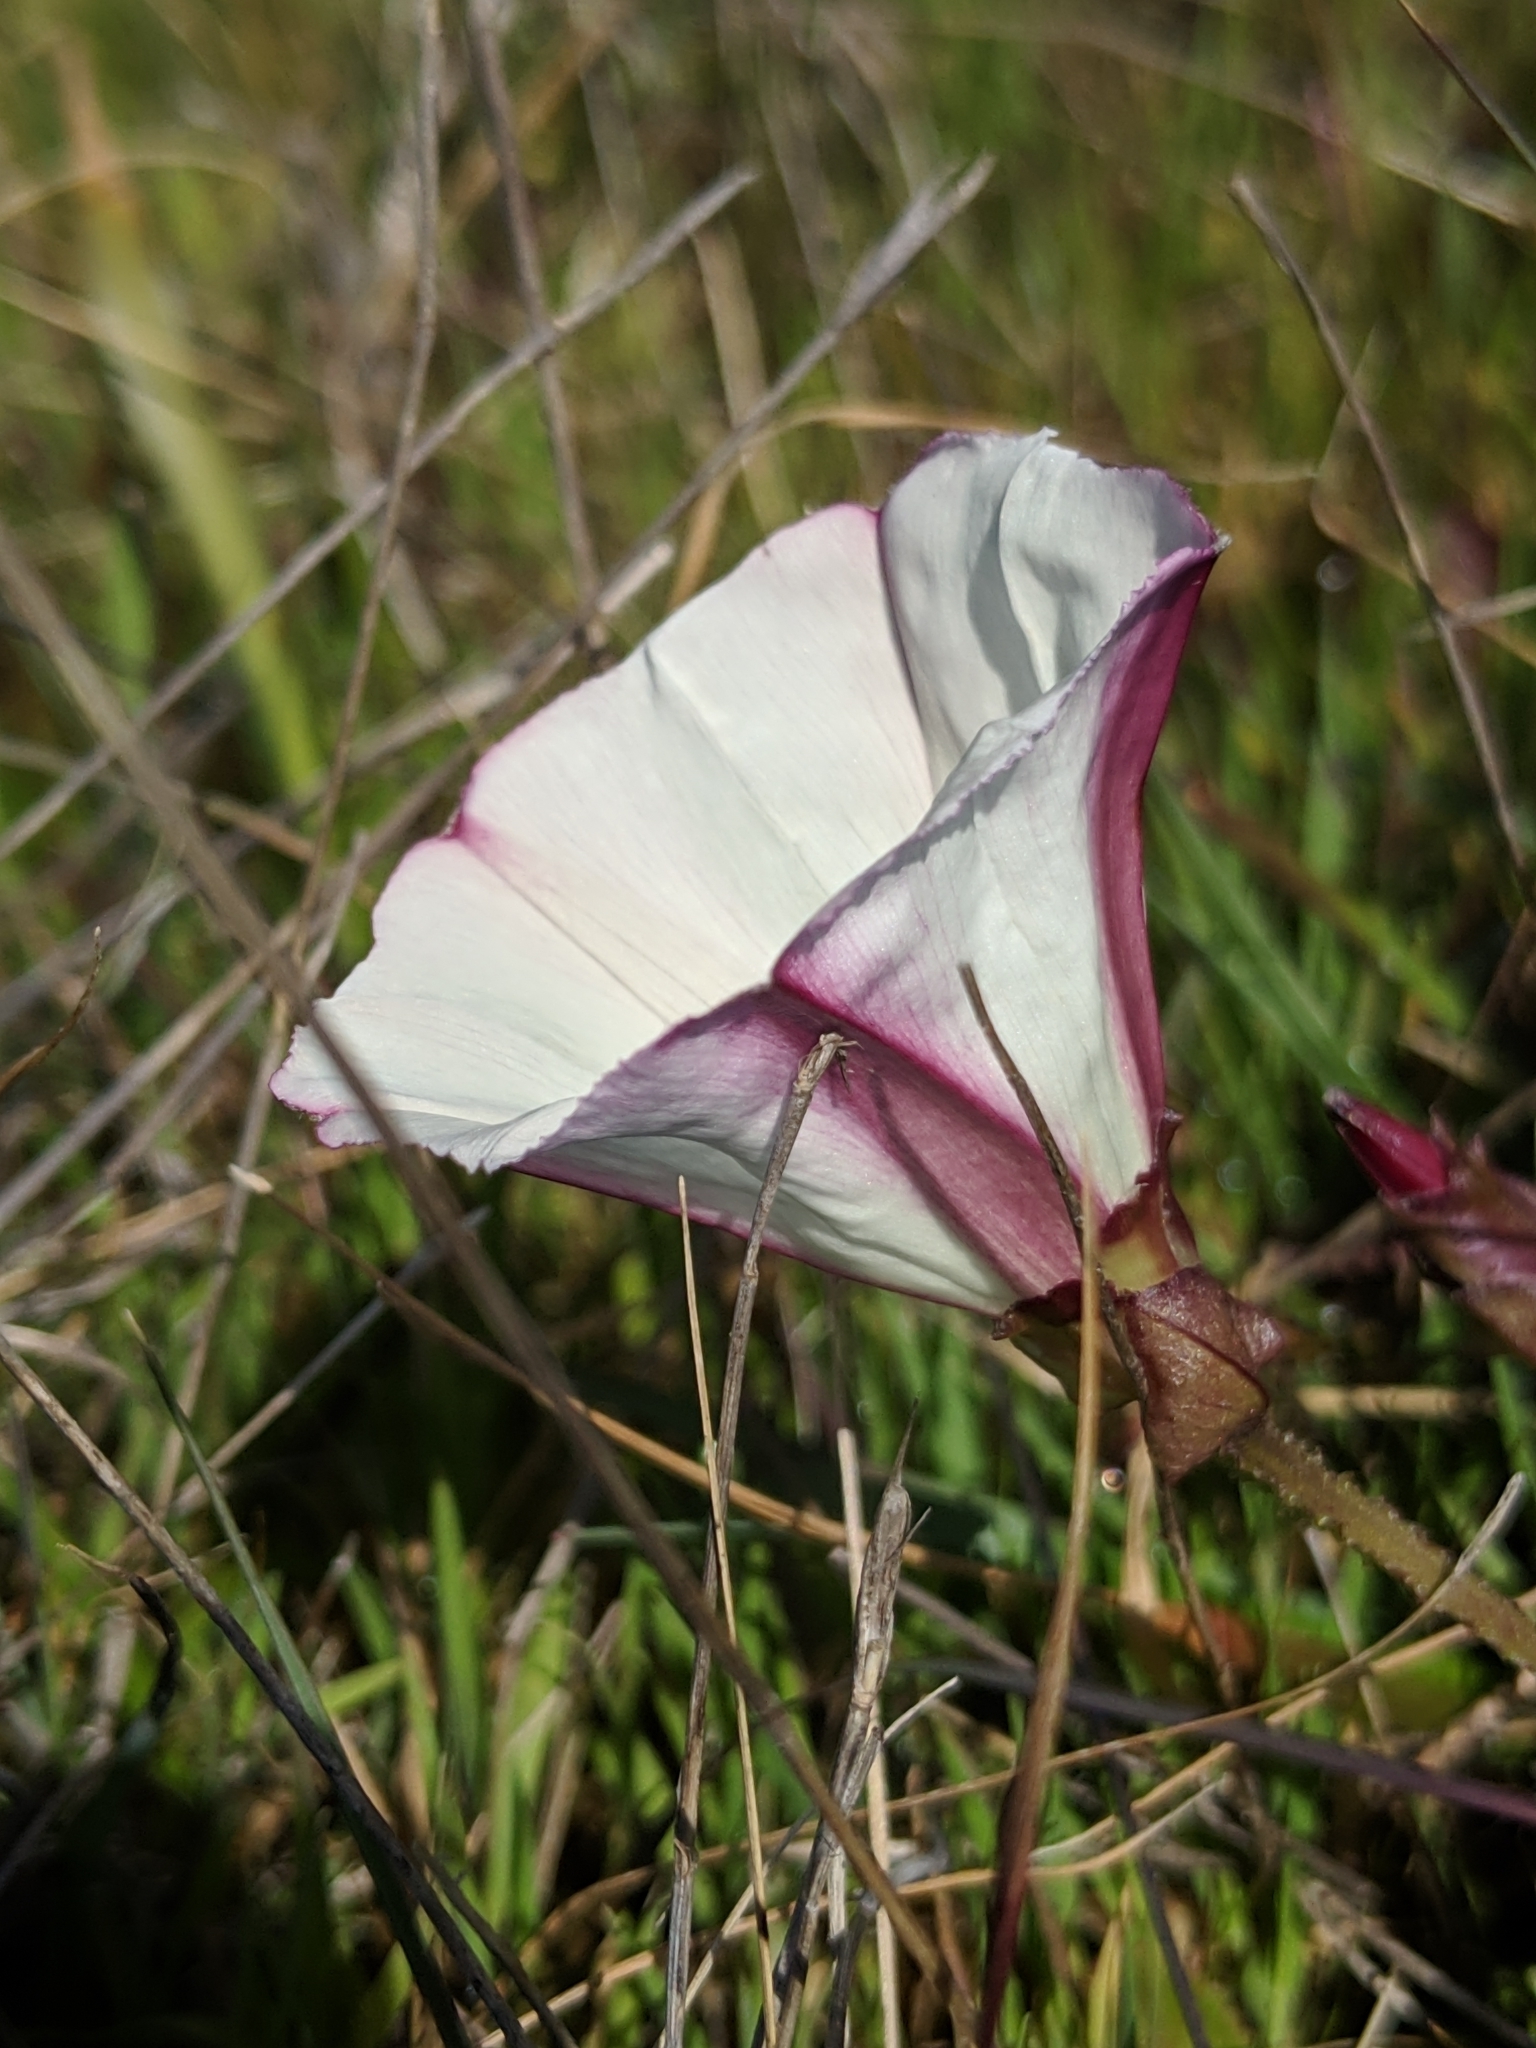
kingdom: Plantae
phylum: Tracheophyta
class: Magnoliopsida
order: Solanales
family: Convolvulaceae
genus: Calystegia
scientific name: Calystegia macrostegia
